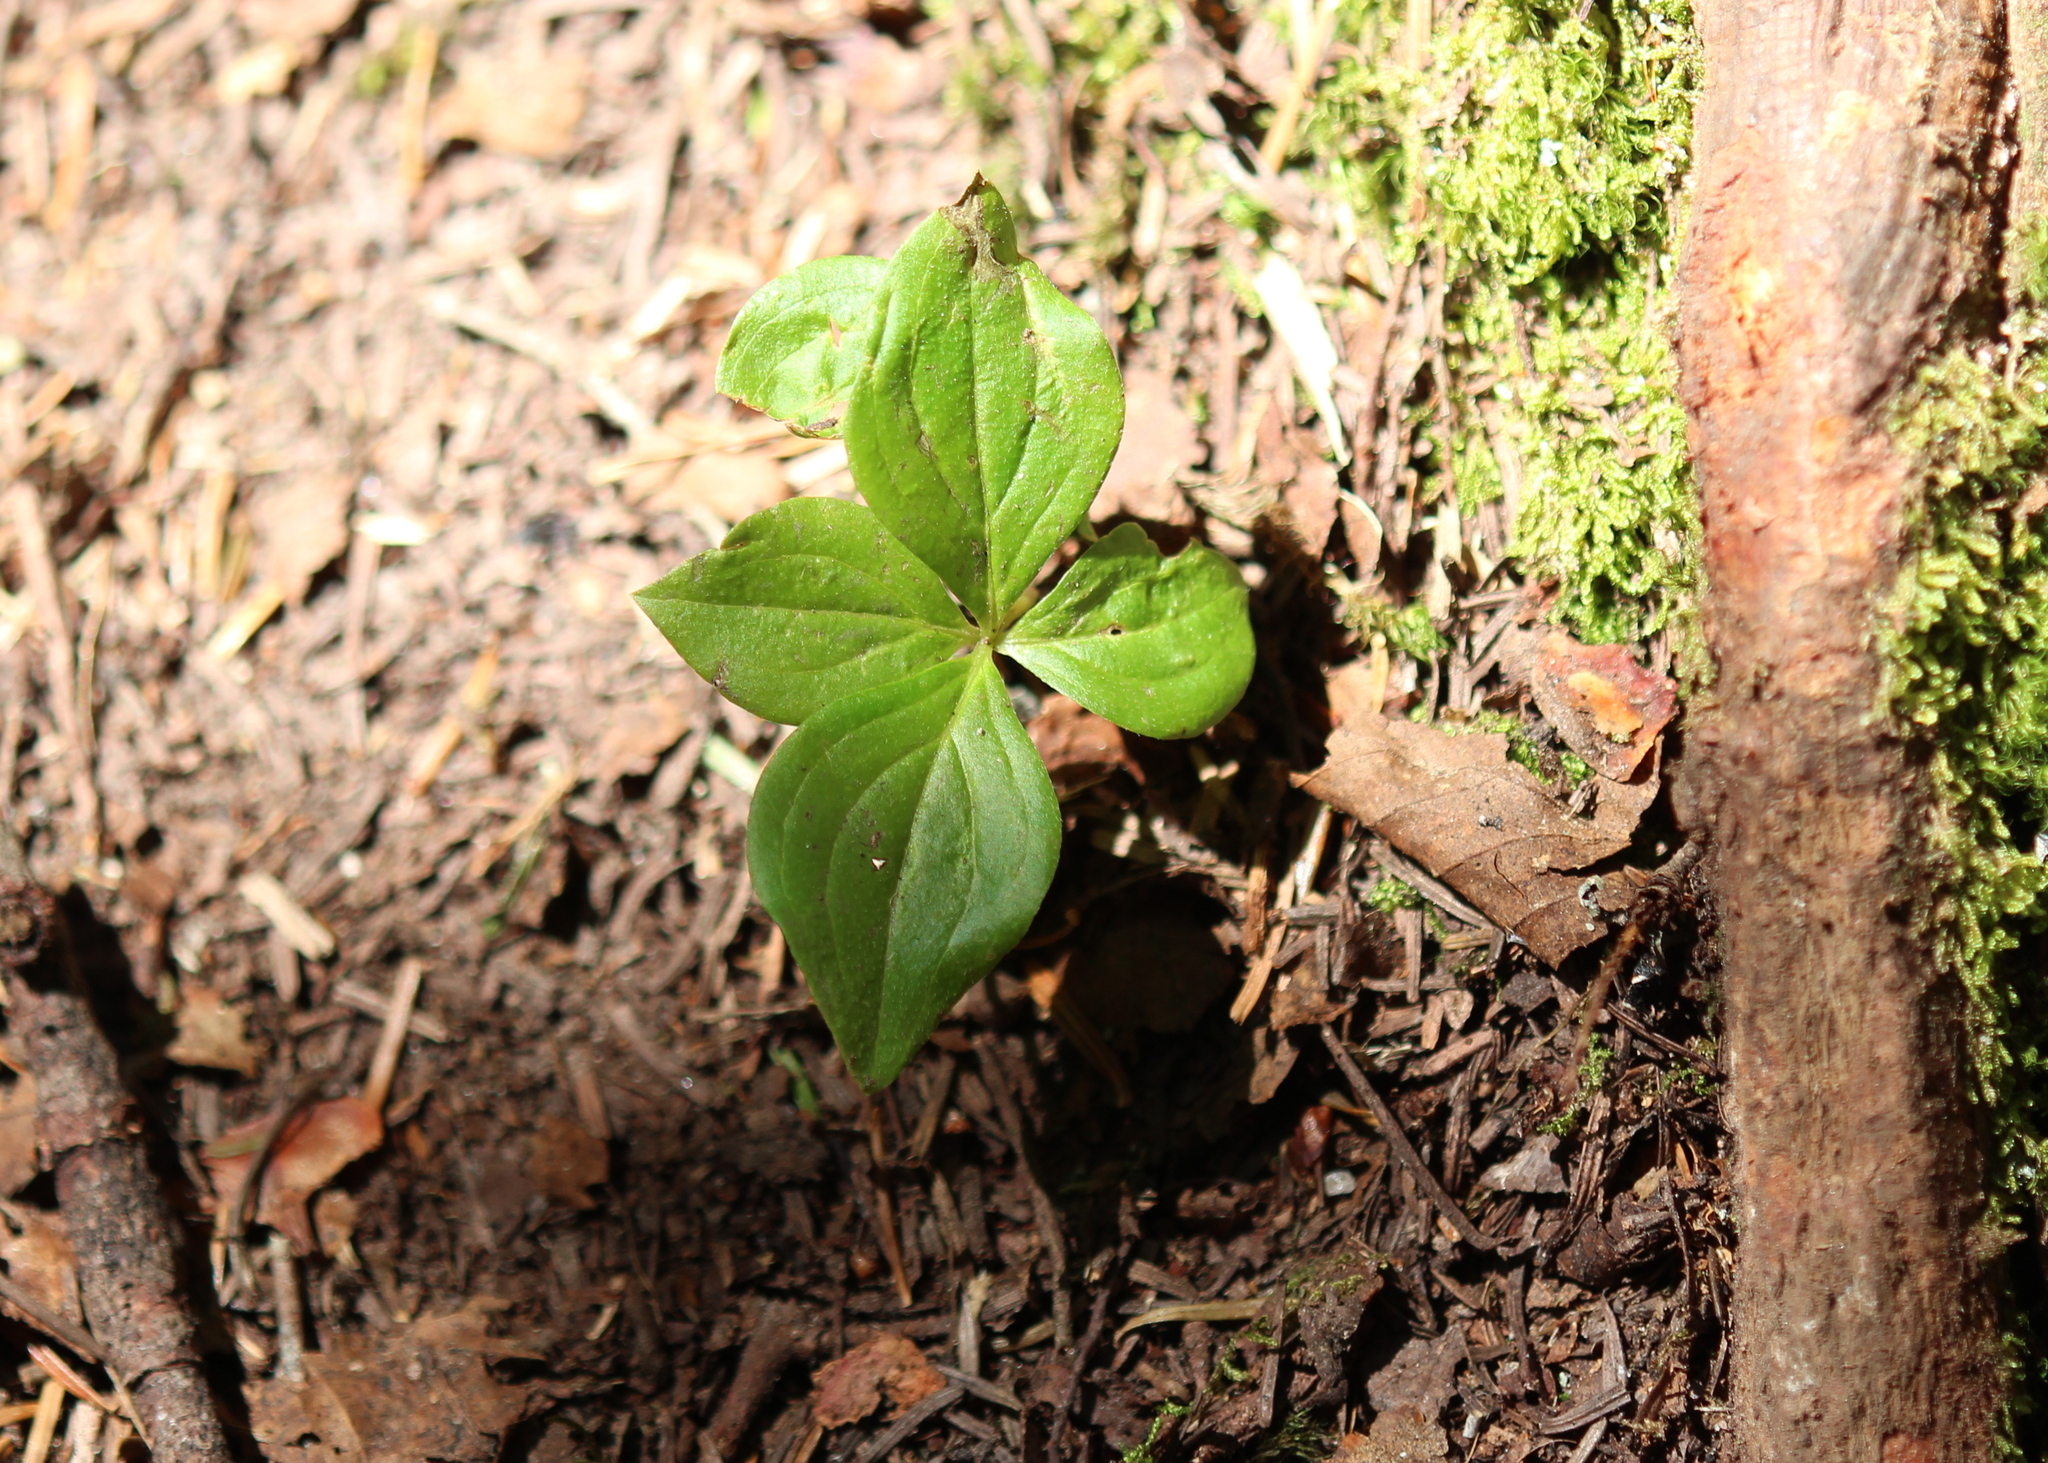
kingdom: Plantae
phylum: Tracheophyta
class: Magnoliopsida
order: Cornales
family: Cornaceae
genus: Cornus
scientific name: Cornus canadensis
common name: Creeping dogwood
